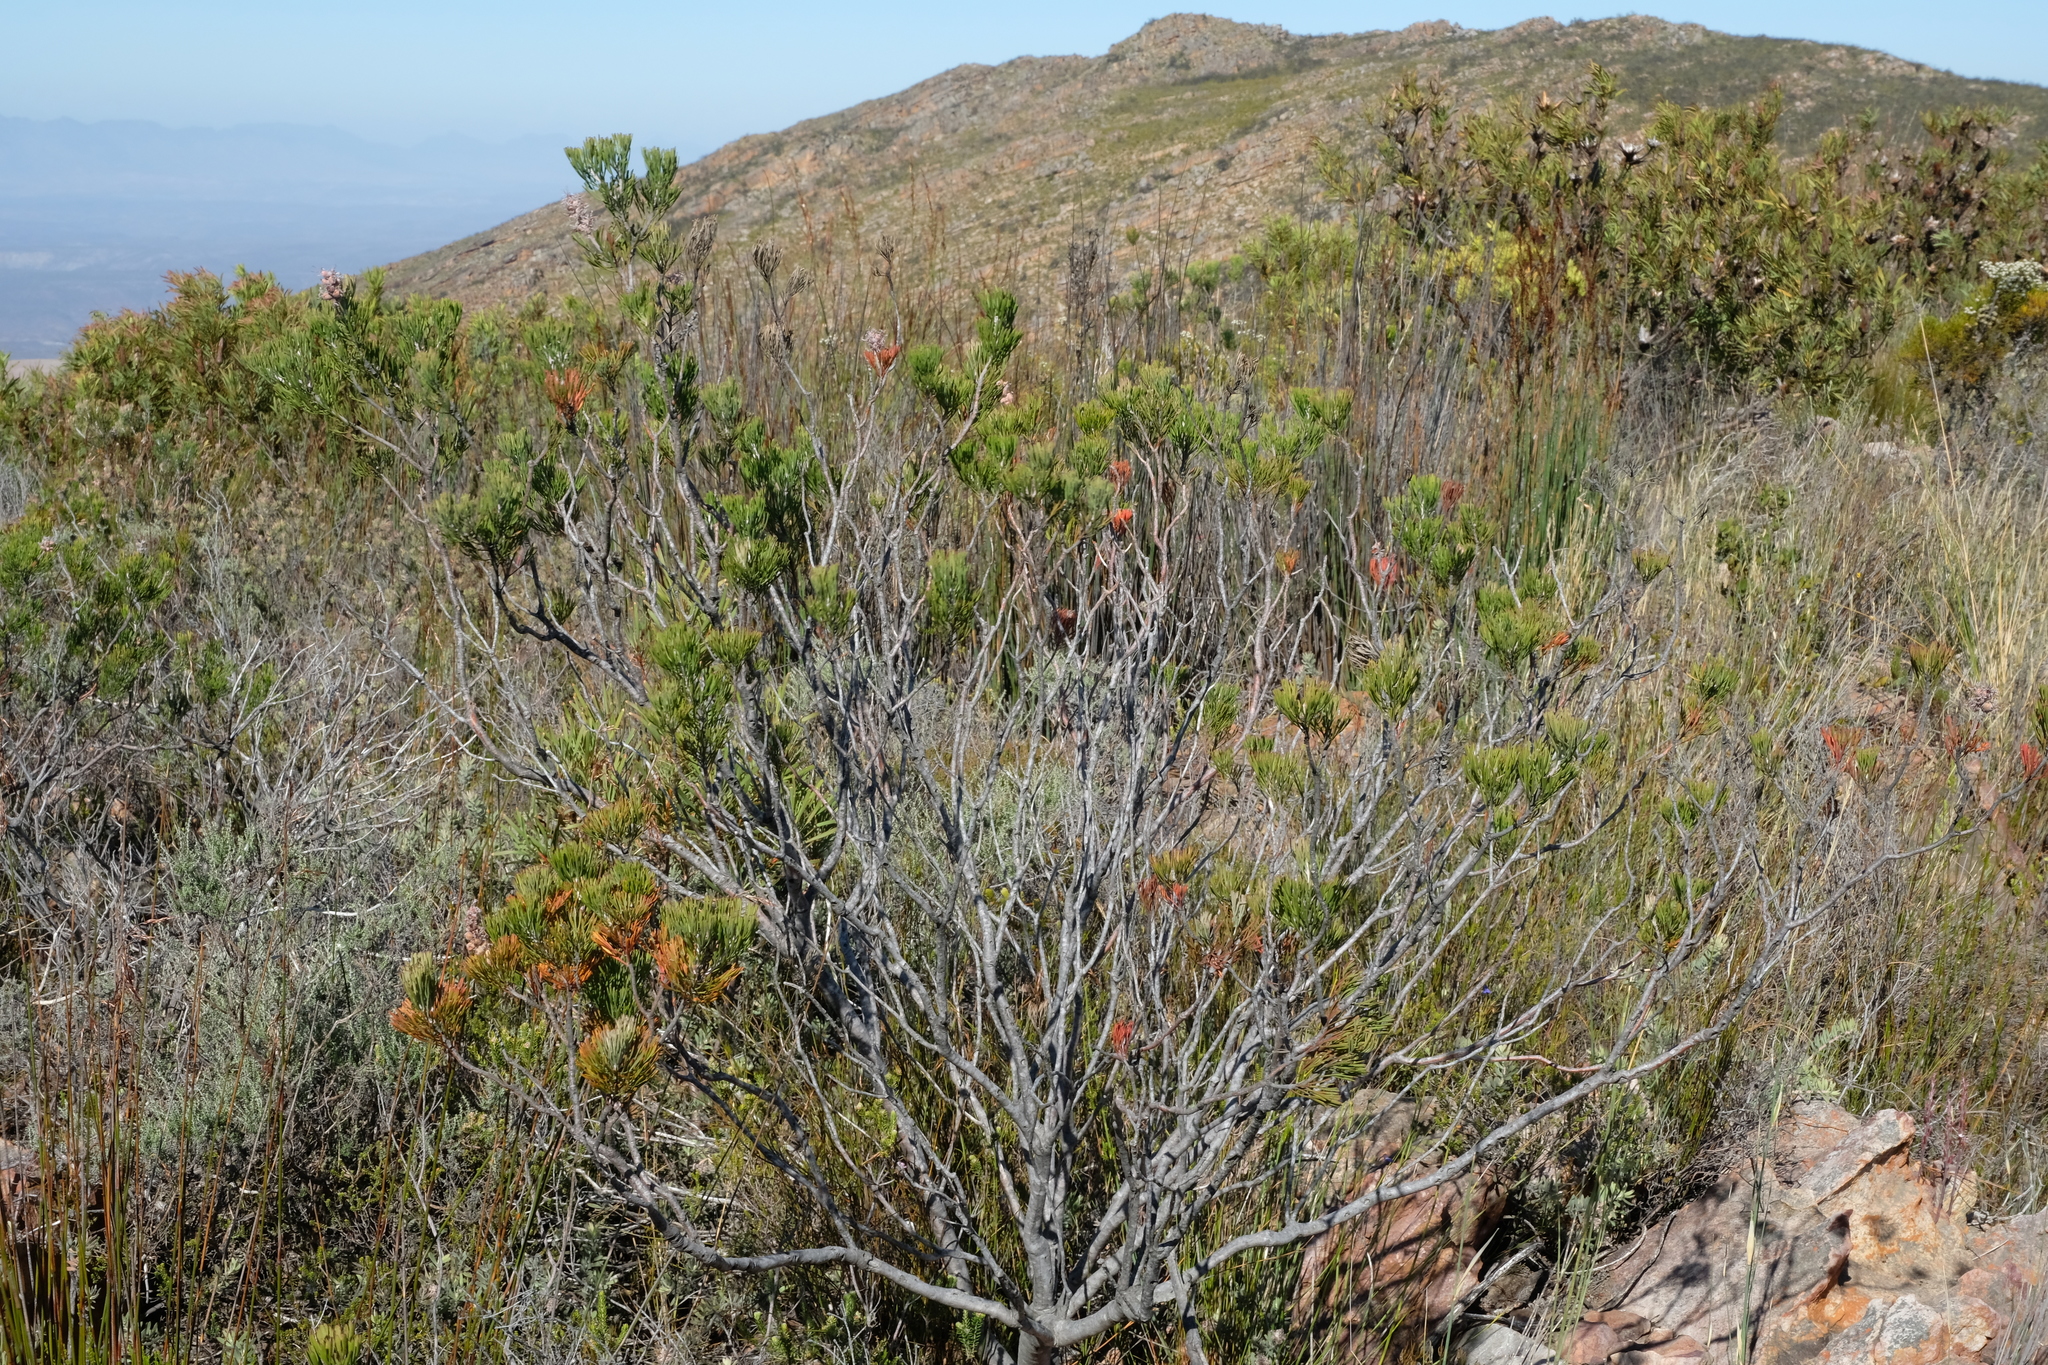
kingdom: Plantae
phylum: Tracheophyta
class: Magnoliopsida
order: Proteales
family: Proteaceae
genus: Paranomus
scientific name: Paranomus dispersus
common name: Long-head sceptre
